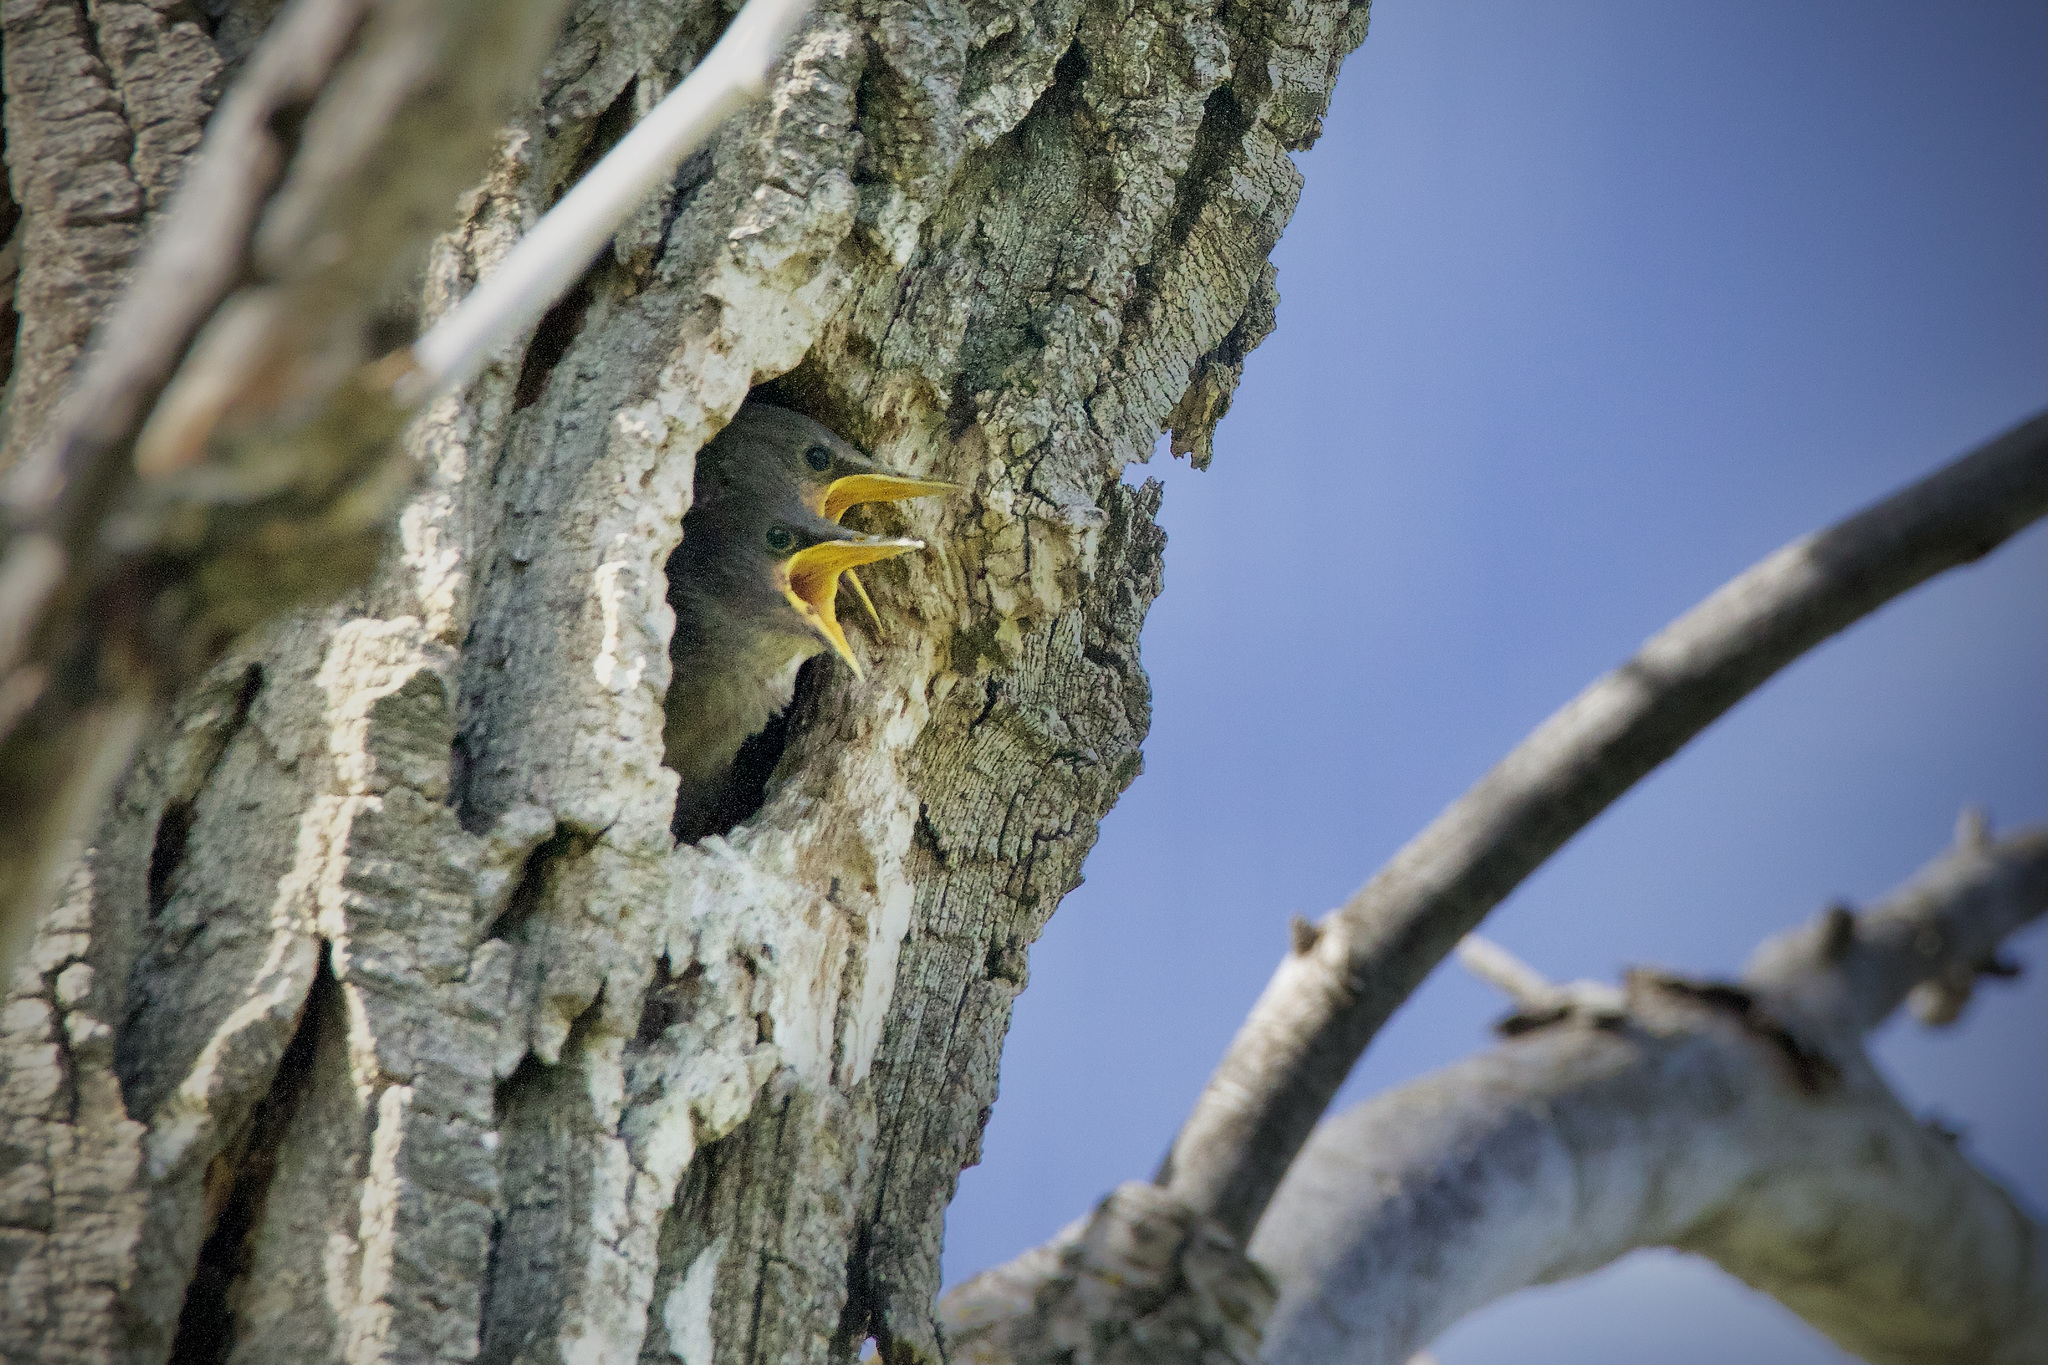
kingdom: Animalia
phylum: Chordata
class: Aves
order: Passeriformes
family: Sturnidae
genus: Sturnus
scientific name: Sturnus vulgaris
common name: Common starling
